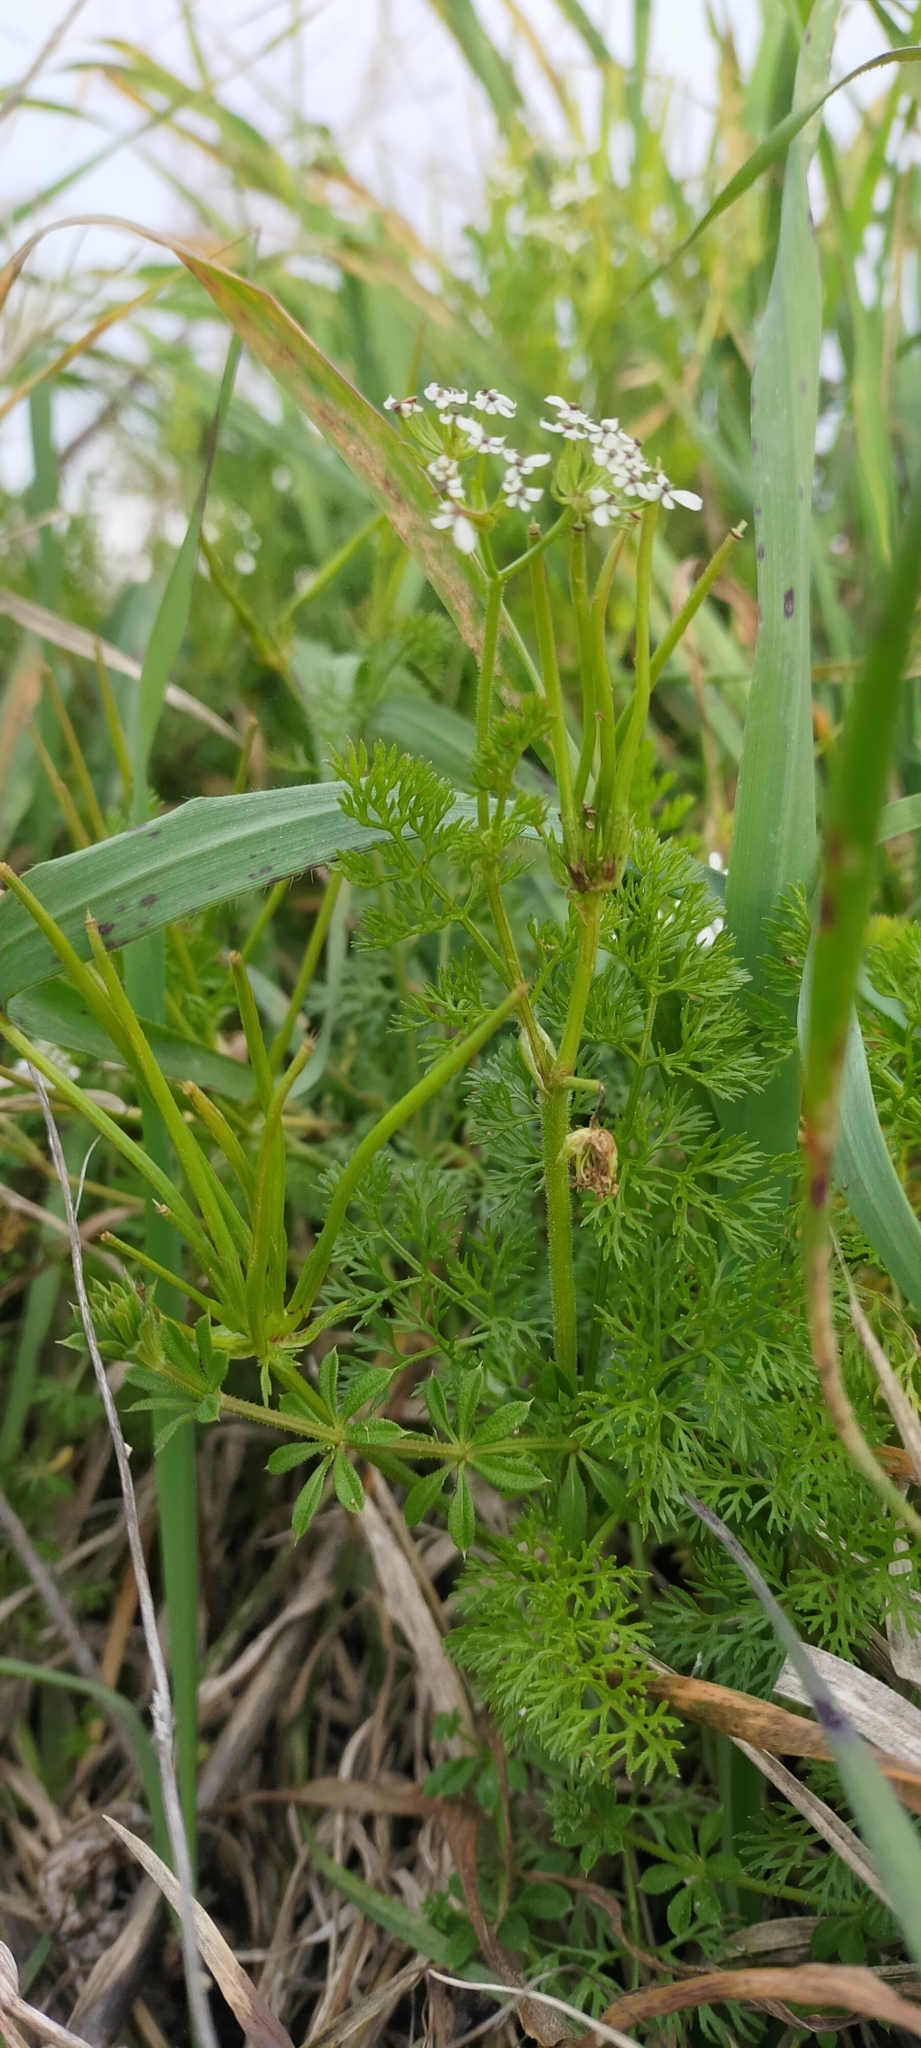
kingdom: Plantae
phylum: Tracheophyta
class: Magnoliopsida
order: Apiales
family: Apiaceae
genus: Scandix
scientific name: Scandix pecten-veneris
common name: Shepherd's-needle
